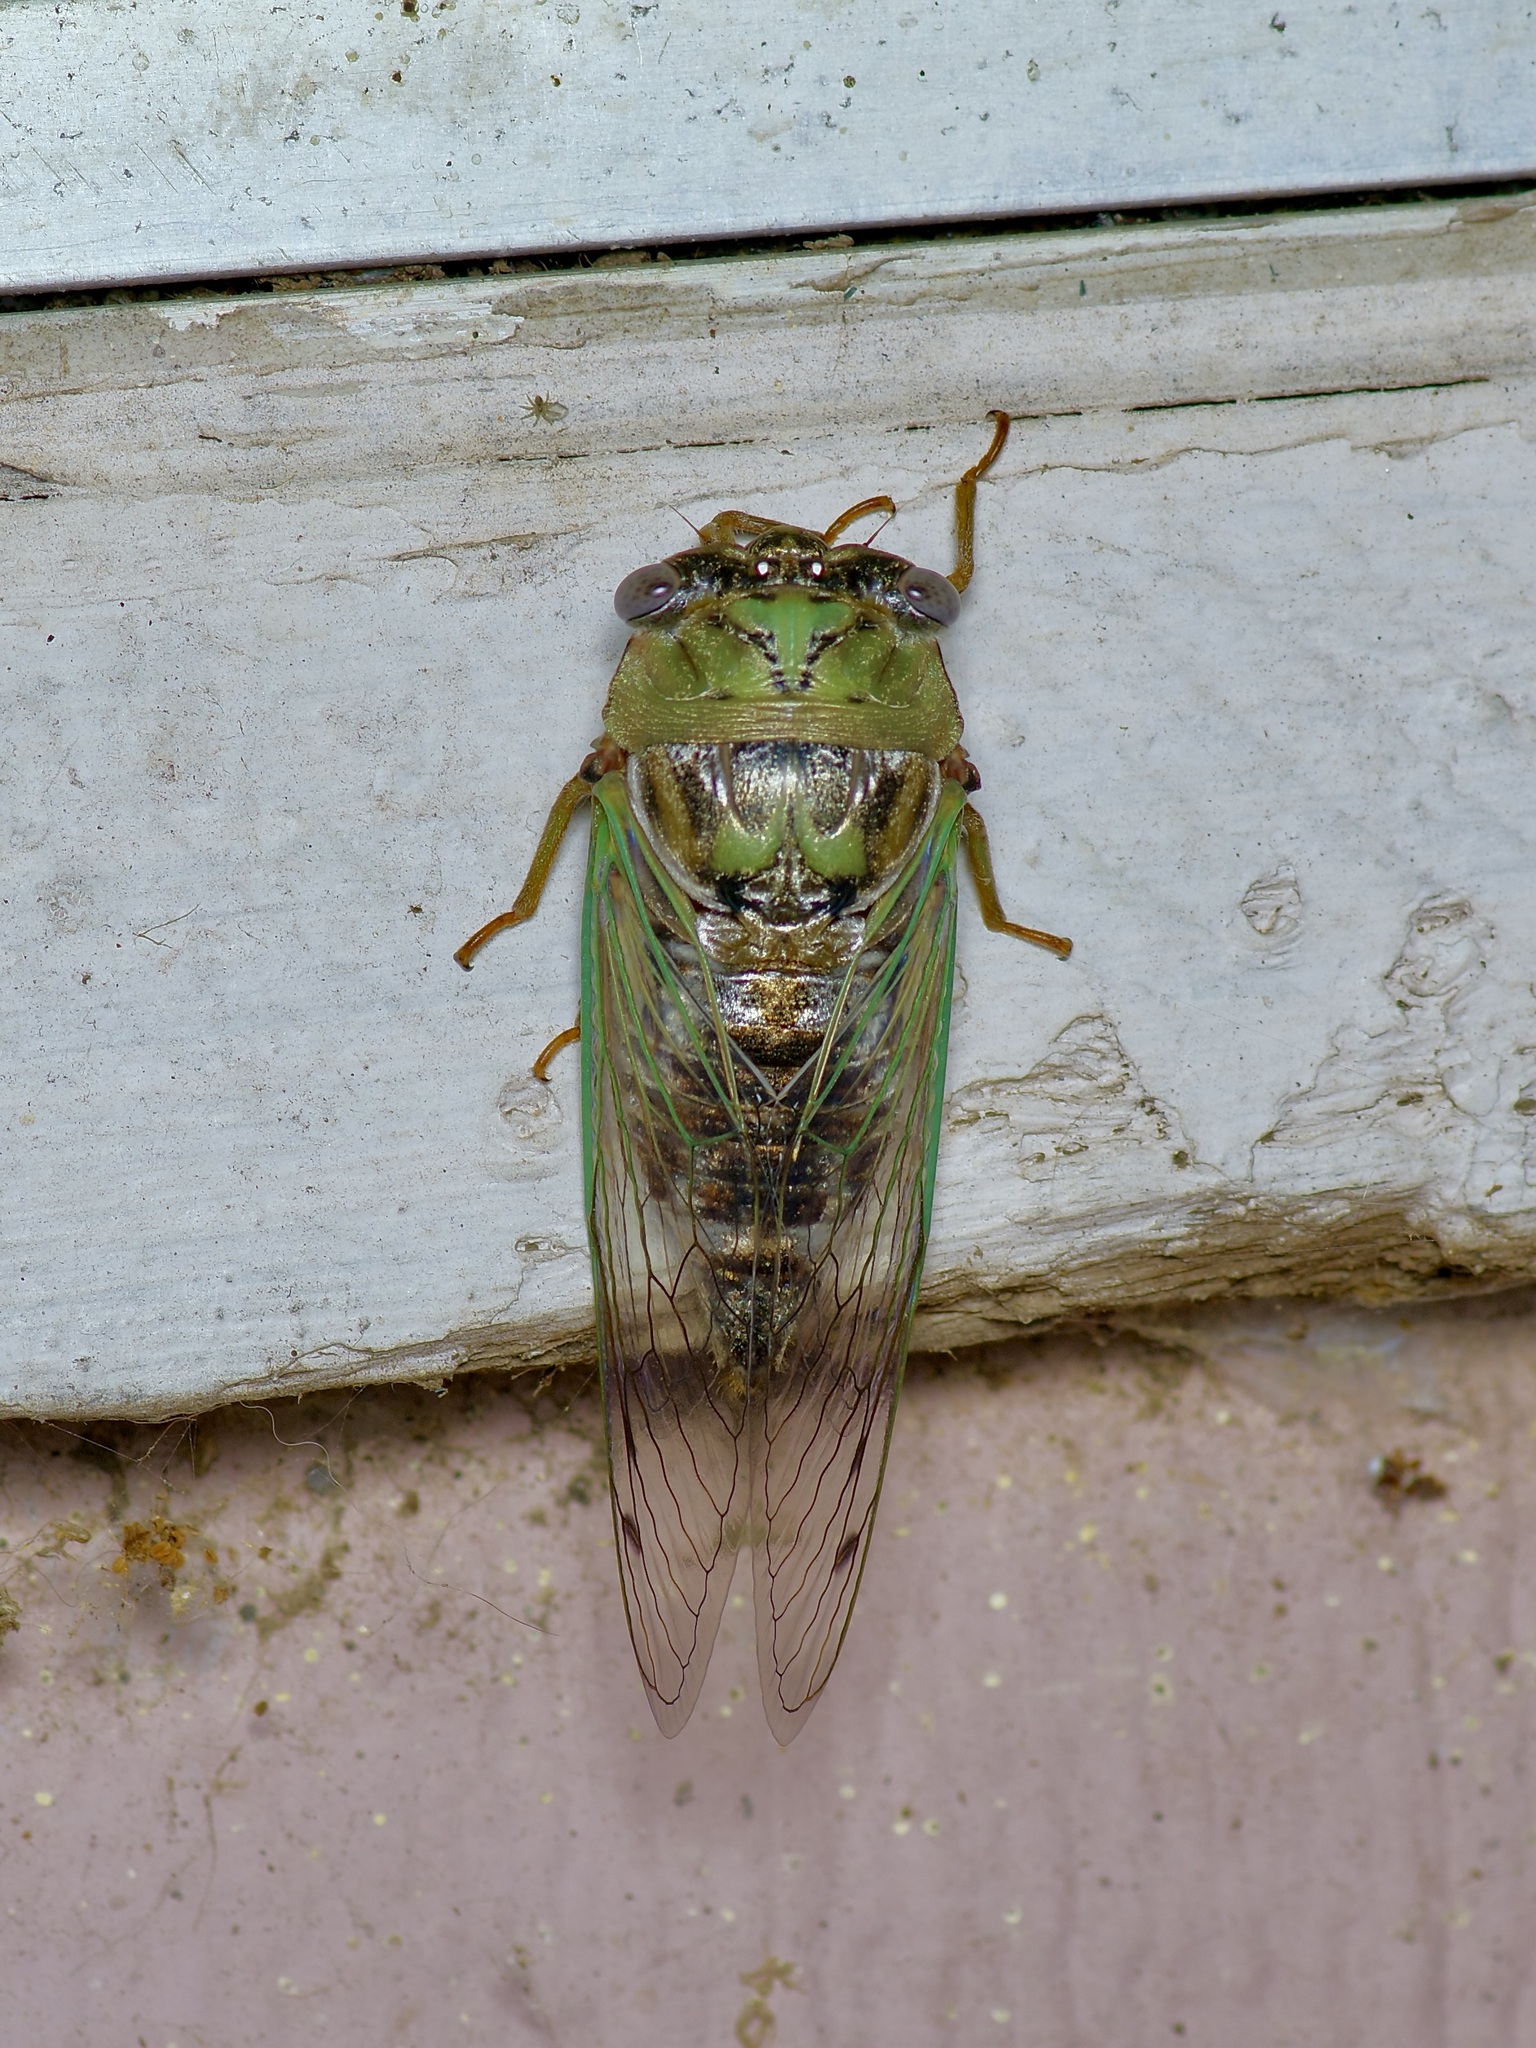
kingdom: Animalia
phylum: Arthropoda
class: Insecta
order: Hemiptera
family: Cicadidae
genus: Megatibicen
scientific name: Megatibicen resh
